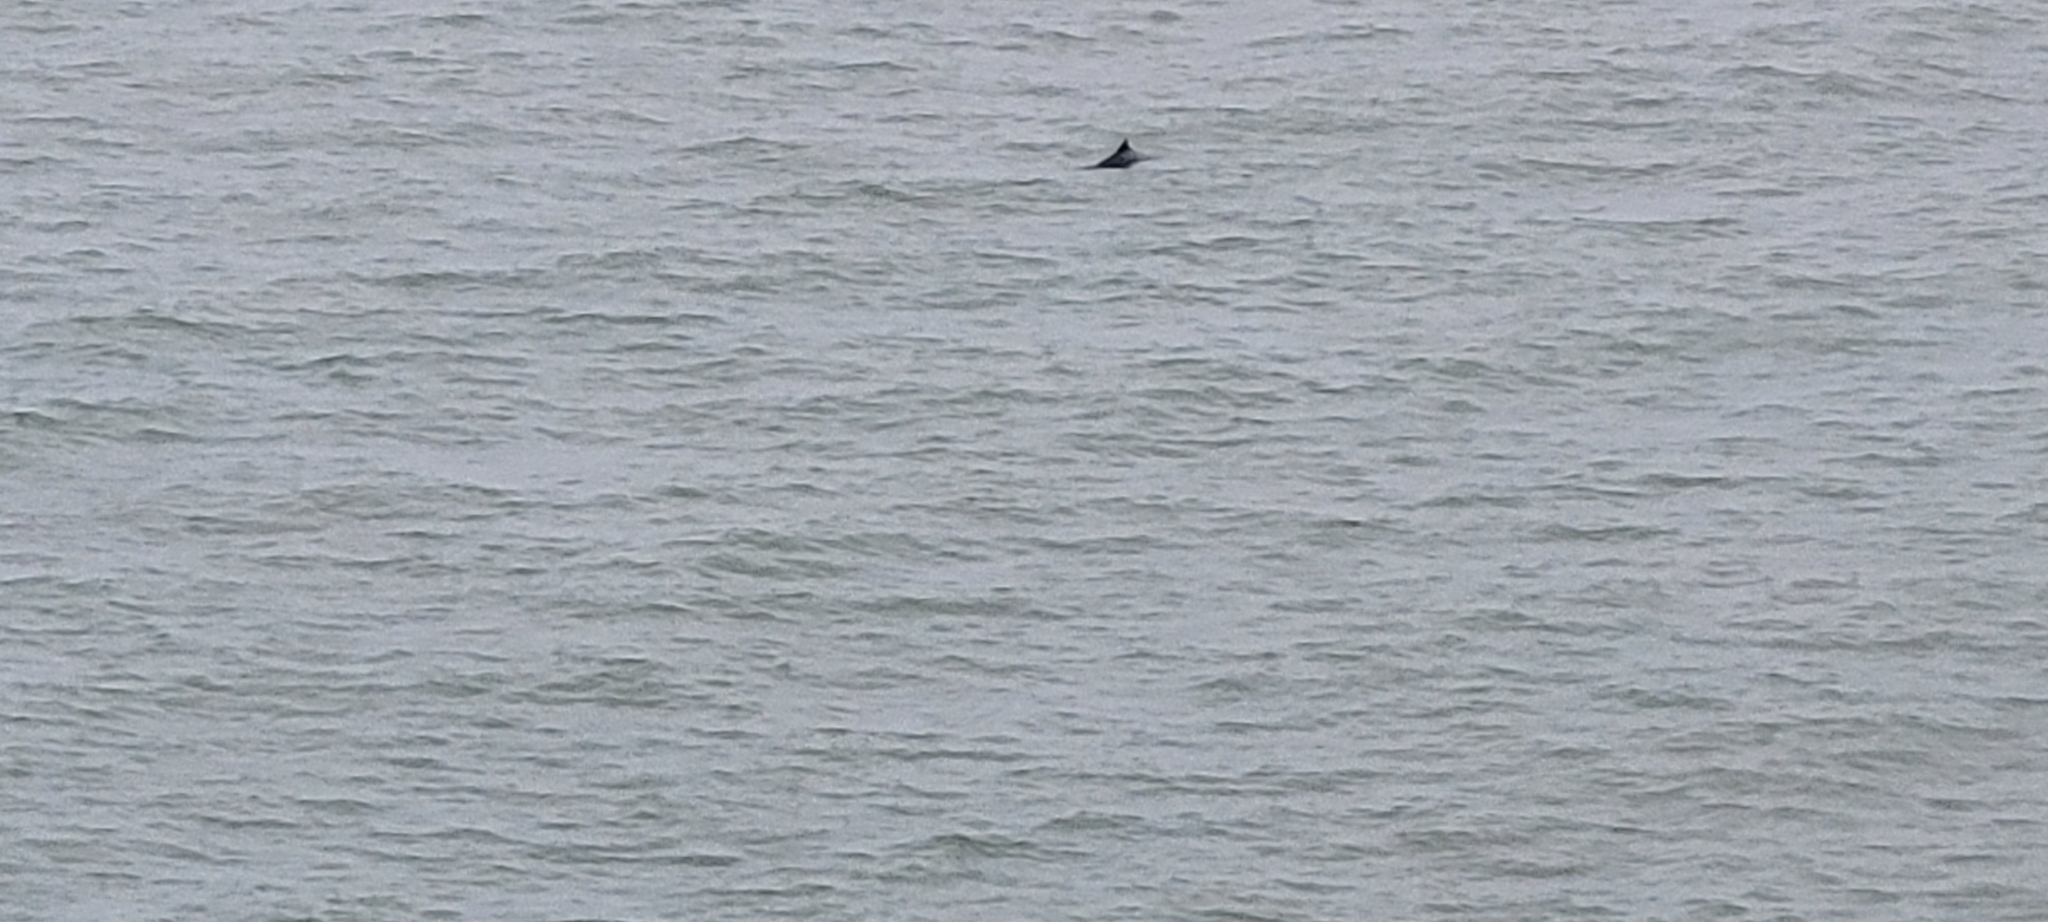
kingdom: Animalia
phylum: Chordata
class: Mammalia
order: Cetacea
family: Phocoenidae
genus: Phocoena
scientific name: Phocoena phocoena
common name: Harbor porpoise
